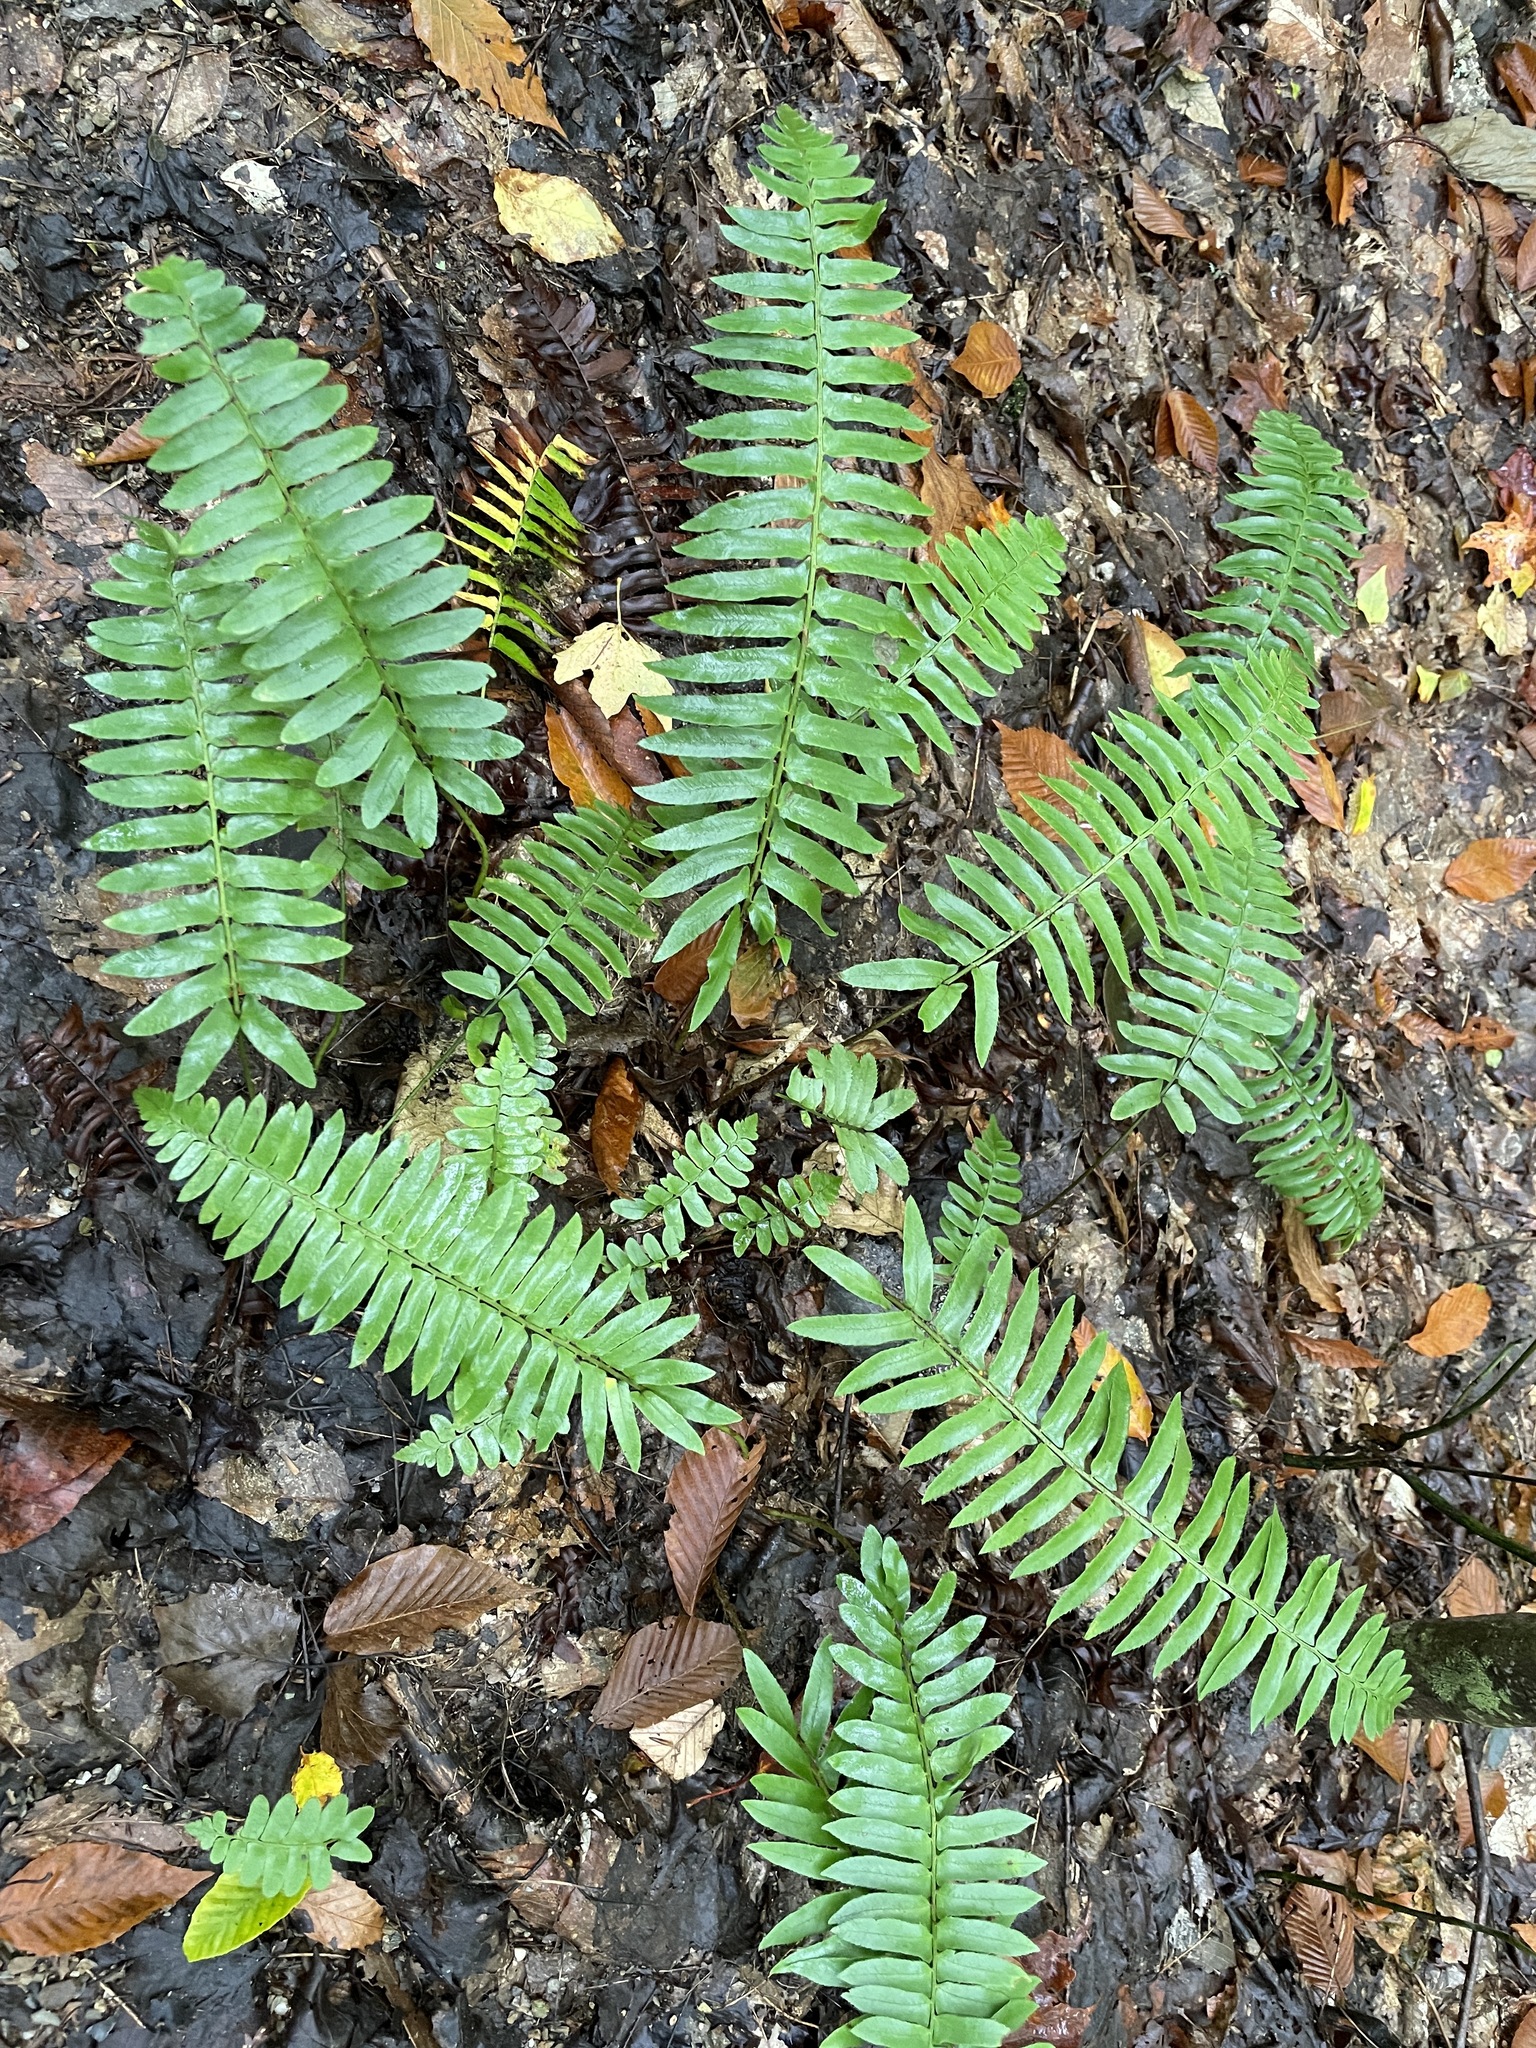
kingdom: Plantae
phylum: Tracheophyta
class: Polypodiopsida
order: Polypodiales
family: Dryopteridaceae
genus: Polystichum
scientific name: Polystichum acrostichoides
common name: Christmas fern
